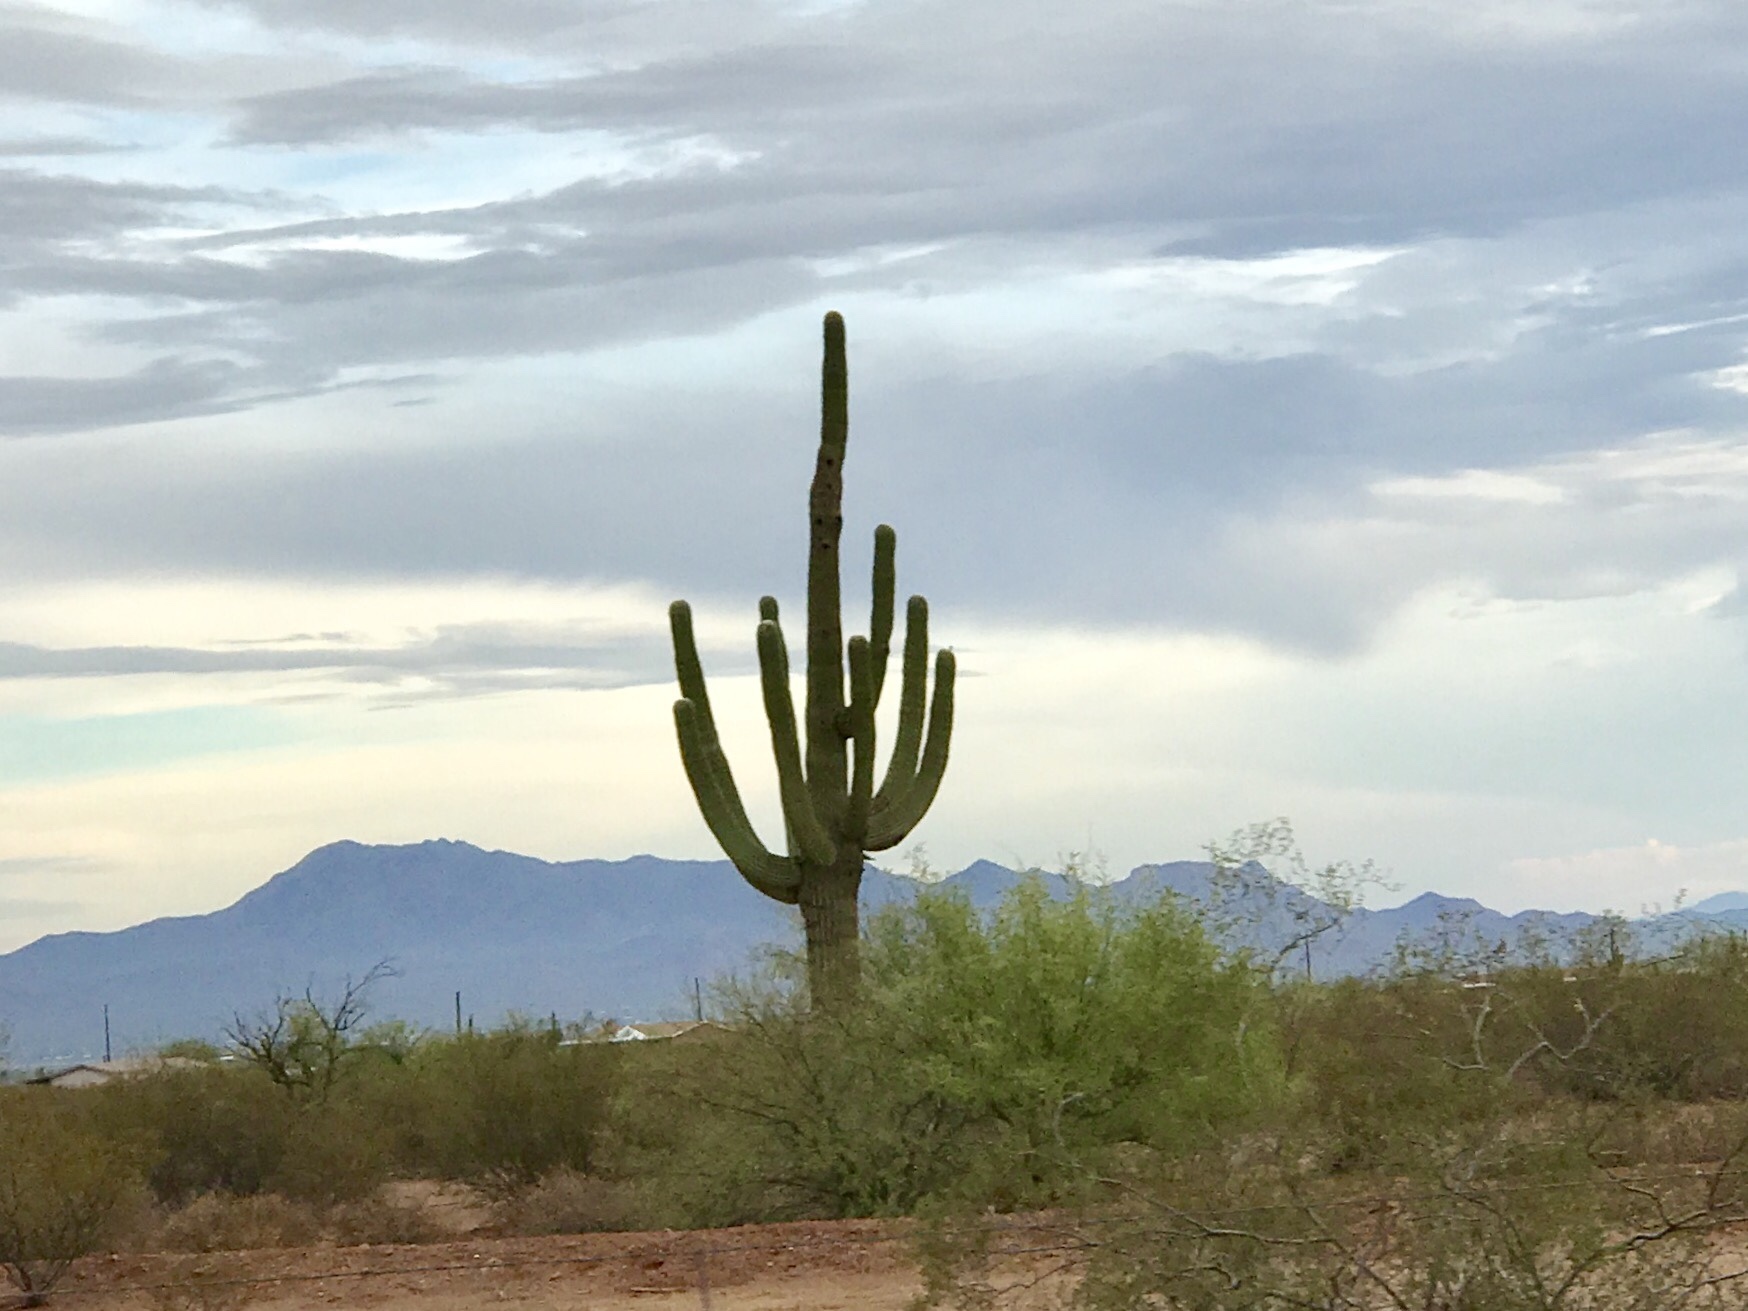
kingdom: Plantae
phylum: Tracheophyta
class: Magnoliopsida
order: Caryophyllales
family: Cactaceae
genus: Carnegiea
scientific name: Carnegiea gigantea
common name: Saguaro
